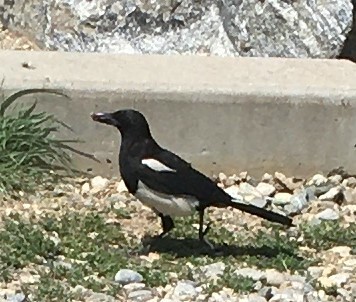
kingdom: Animalia
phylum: Chordata
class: Aves
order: Passeriformes
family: Corvidae
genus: Pica
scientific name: Pica hudsonia
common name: Black-billed magpie
